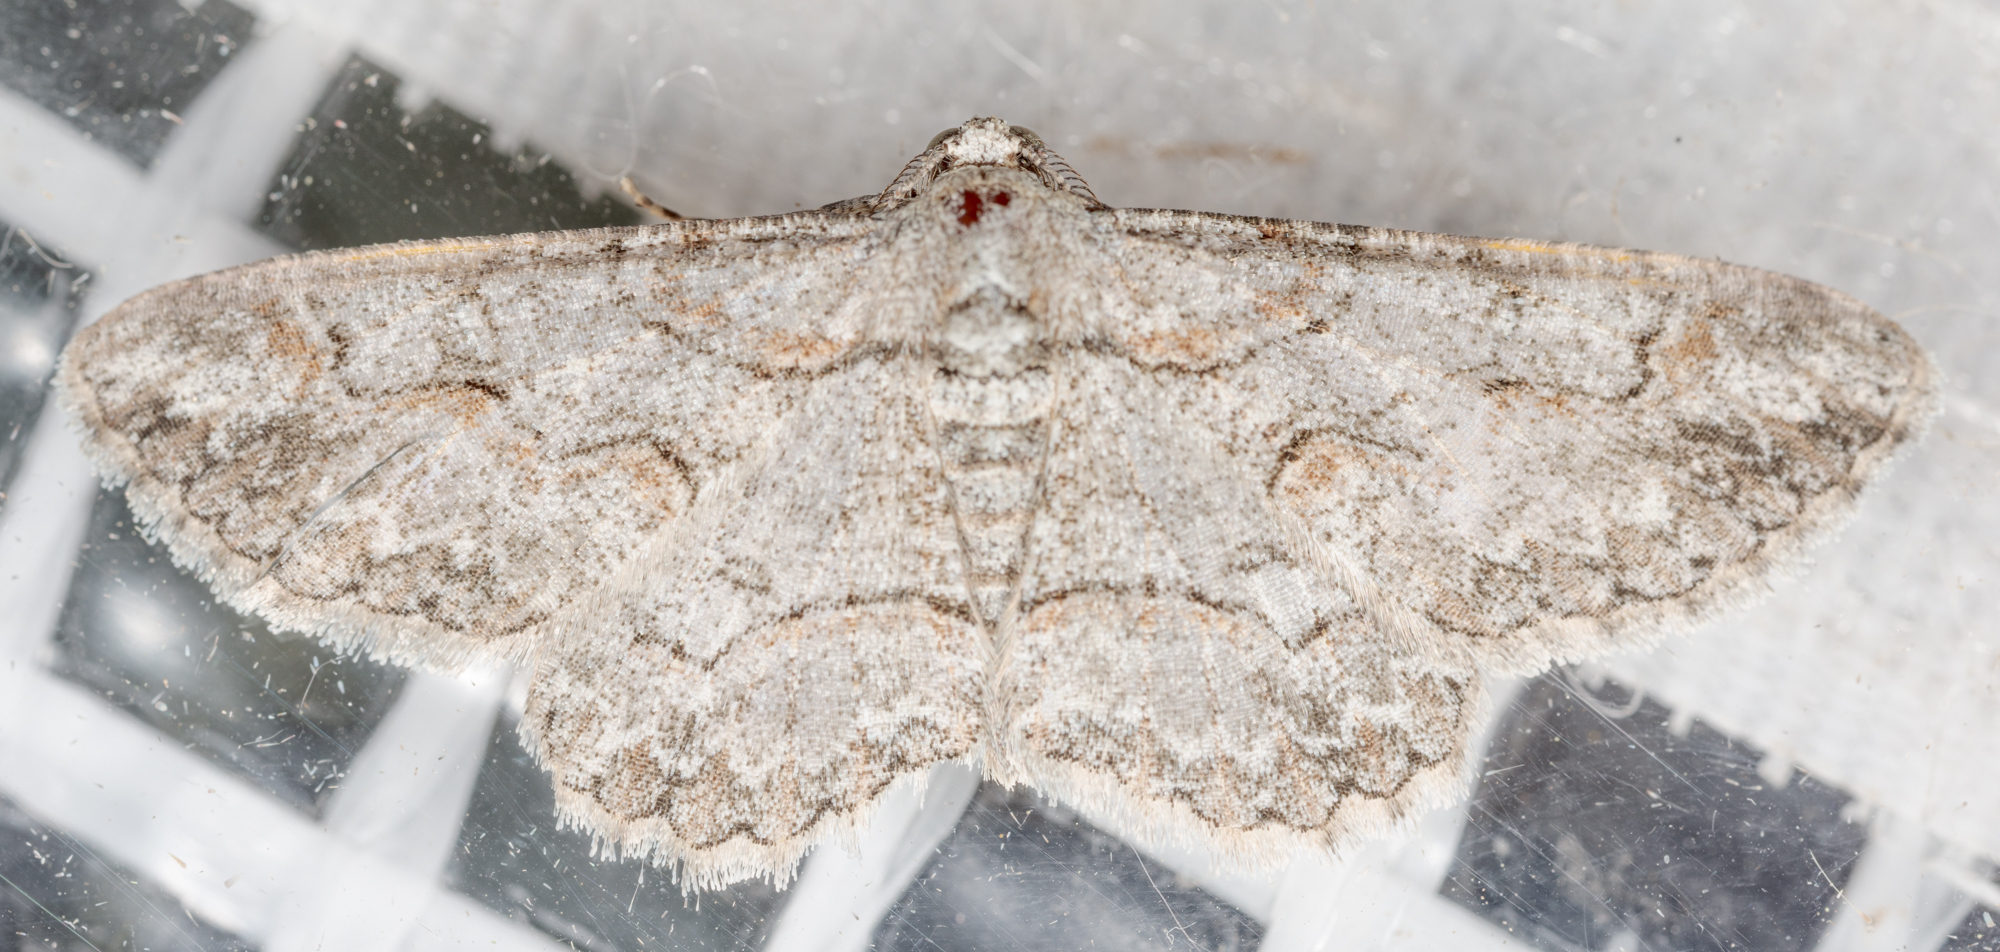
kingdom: Animalia
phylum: Arthropoda
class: Insecta
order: Lepidoptera
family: Geometridae
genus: Iridopsis
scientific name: Iridopsis defectaria
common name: Brown-shaded gray
